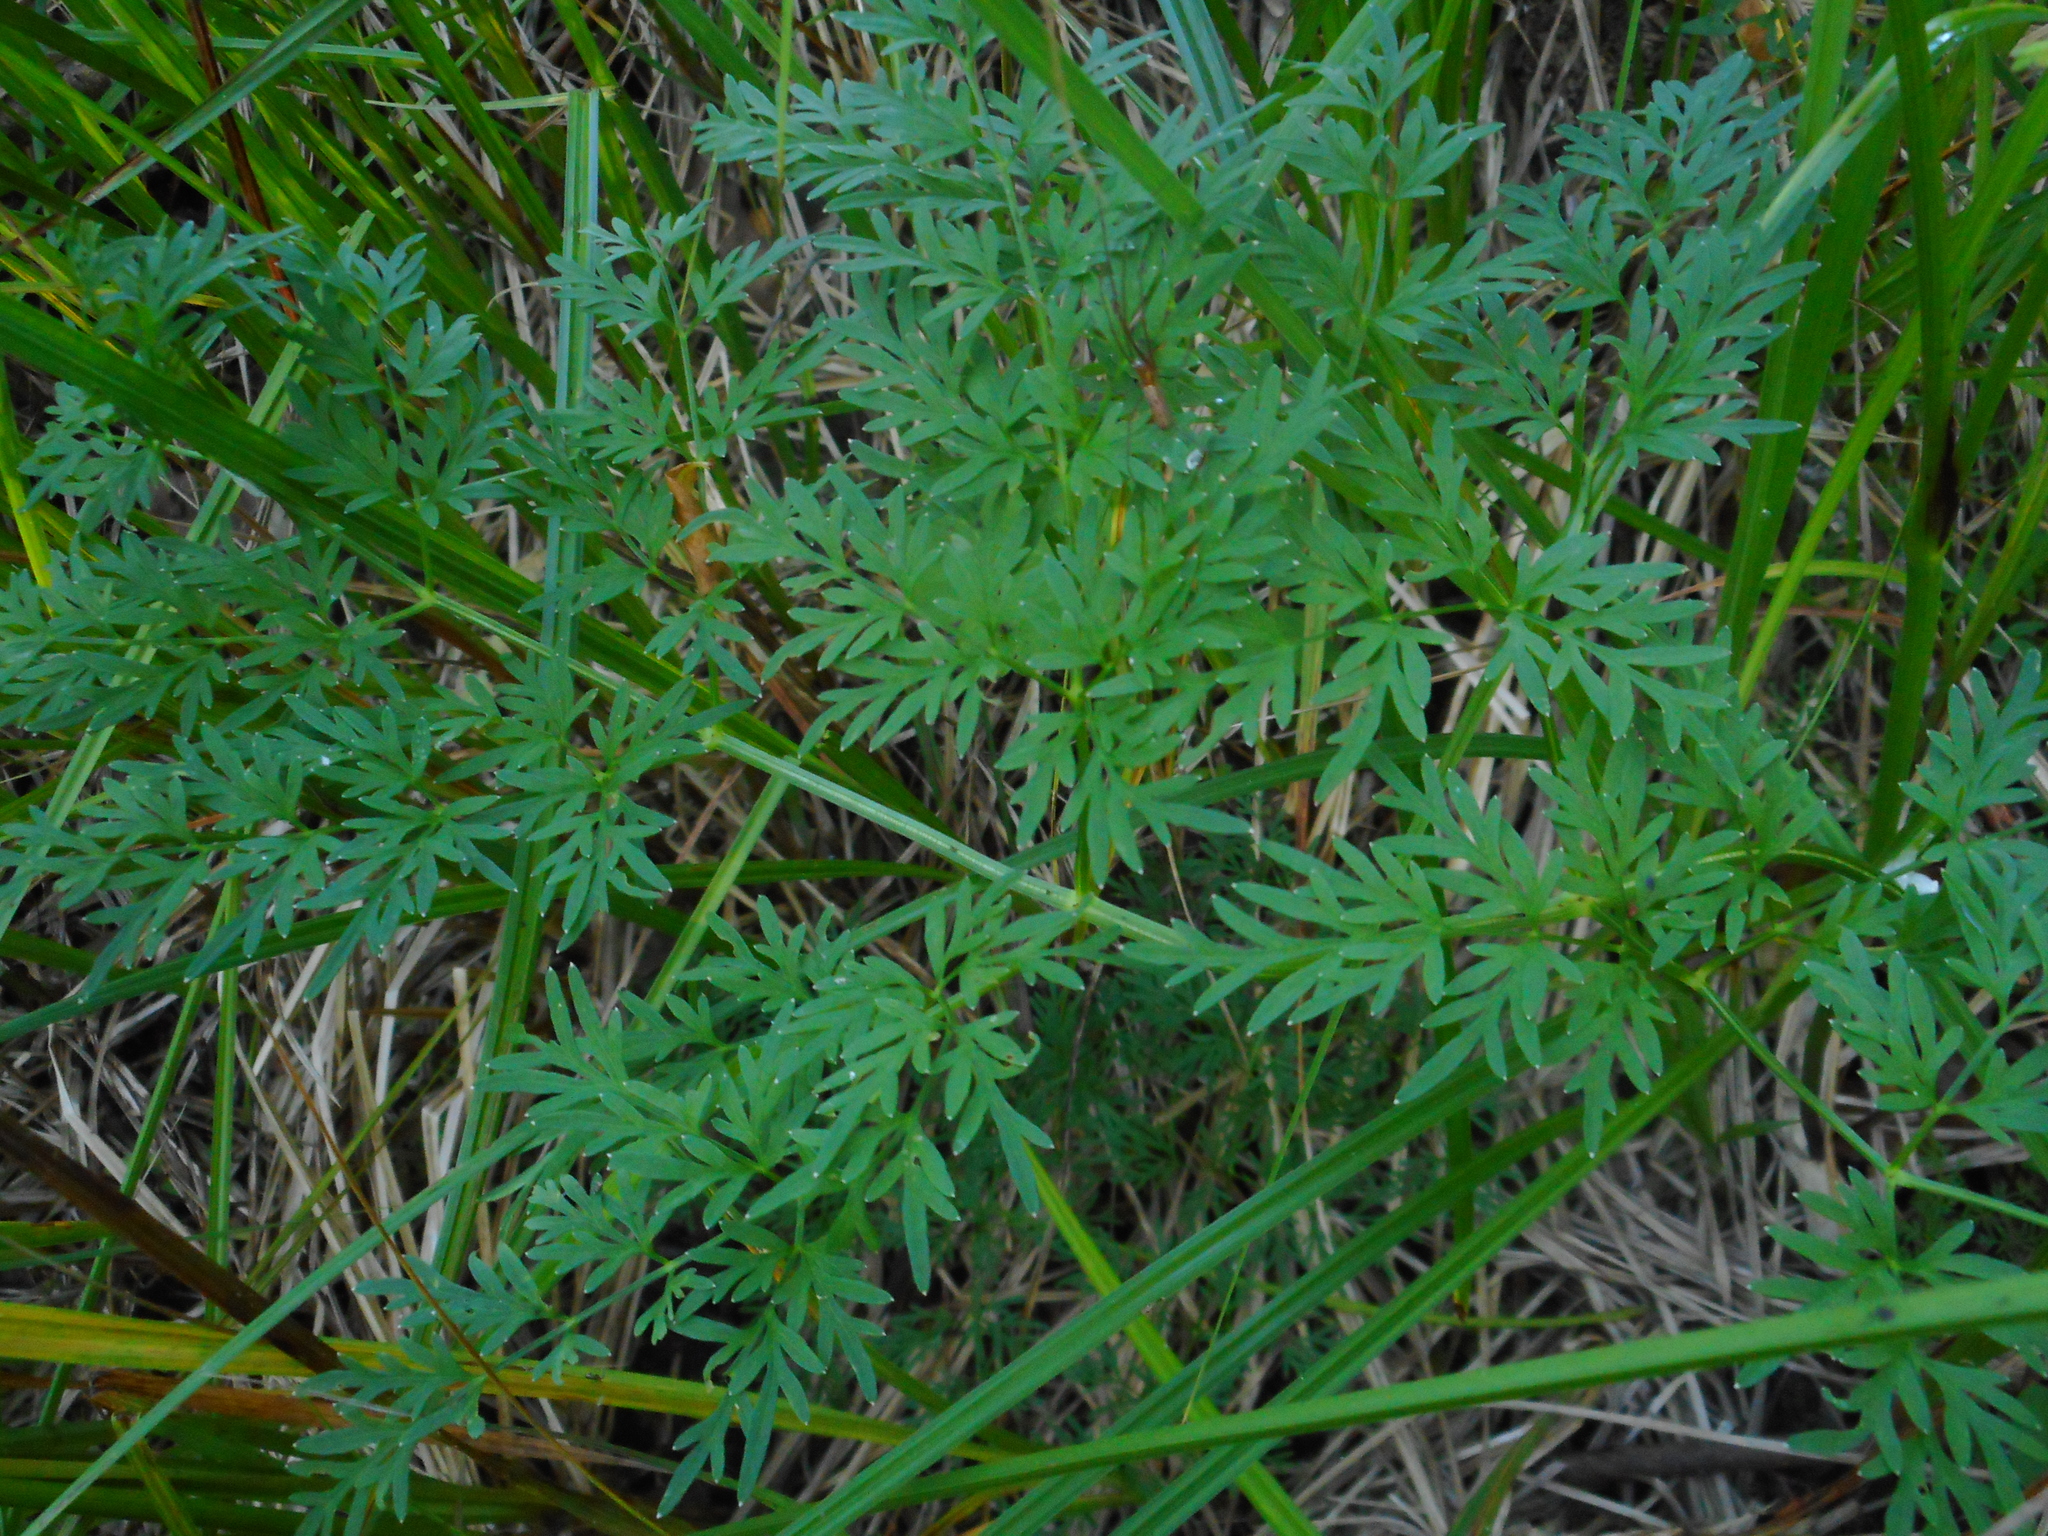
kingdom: Plantae
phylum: Tracheophyta
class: Magnoliopsida
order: Apiales
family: Apiaceae
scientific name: Apiaceae
